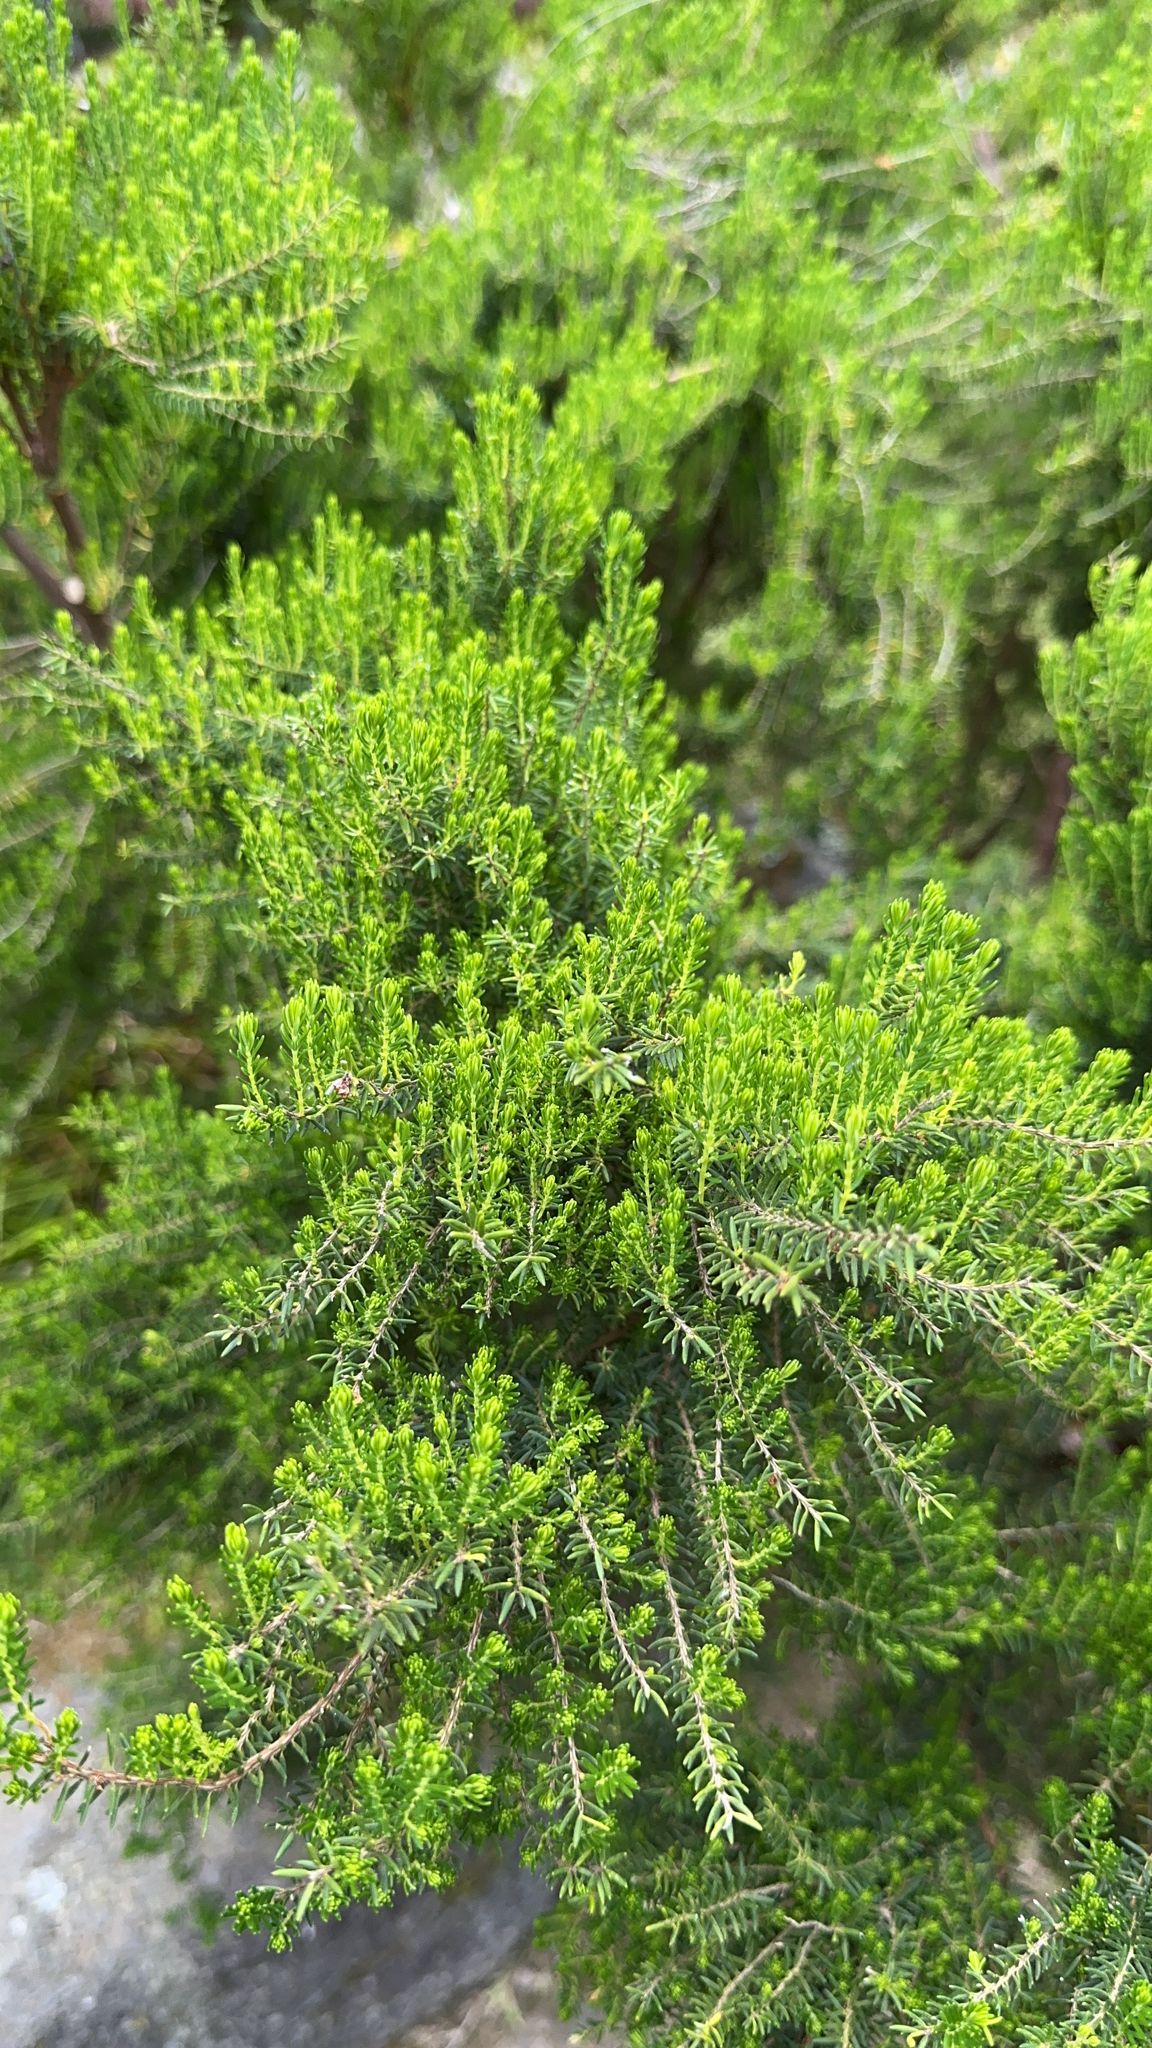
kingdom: Plantae
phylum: Tracheophyta
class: Magnoliopsida
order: Ericales
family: Ericaceae
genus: Erica
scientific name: Erica azorica
